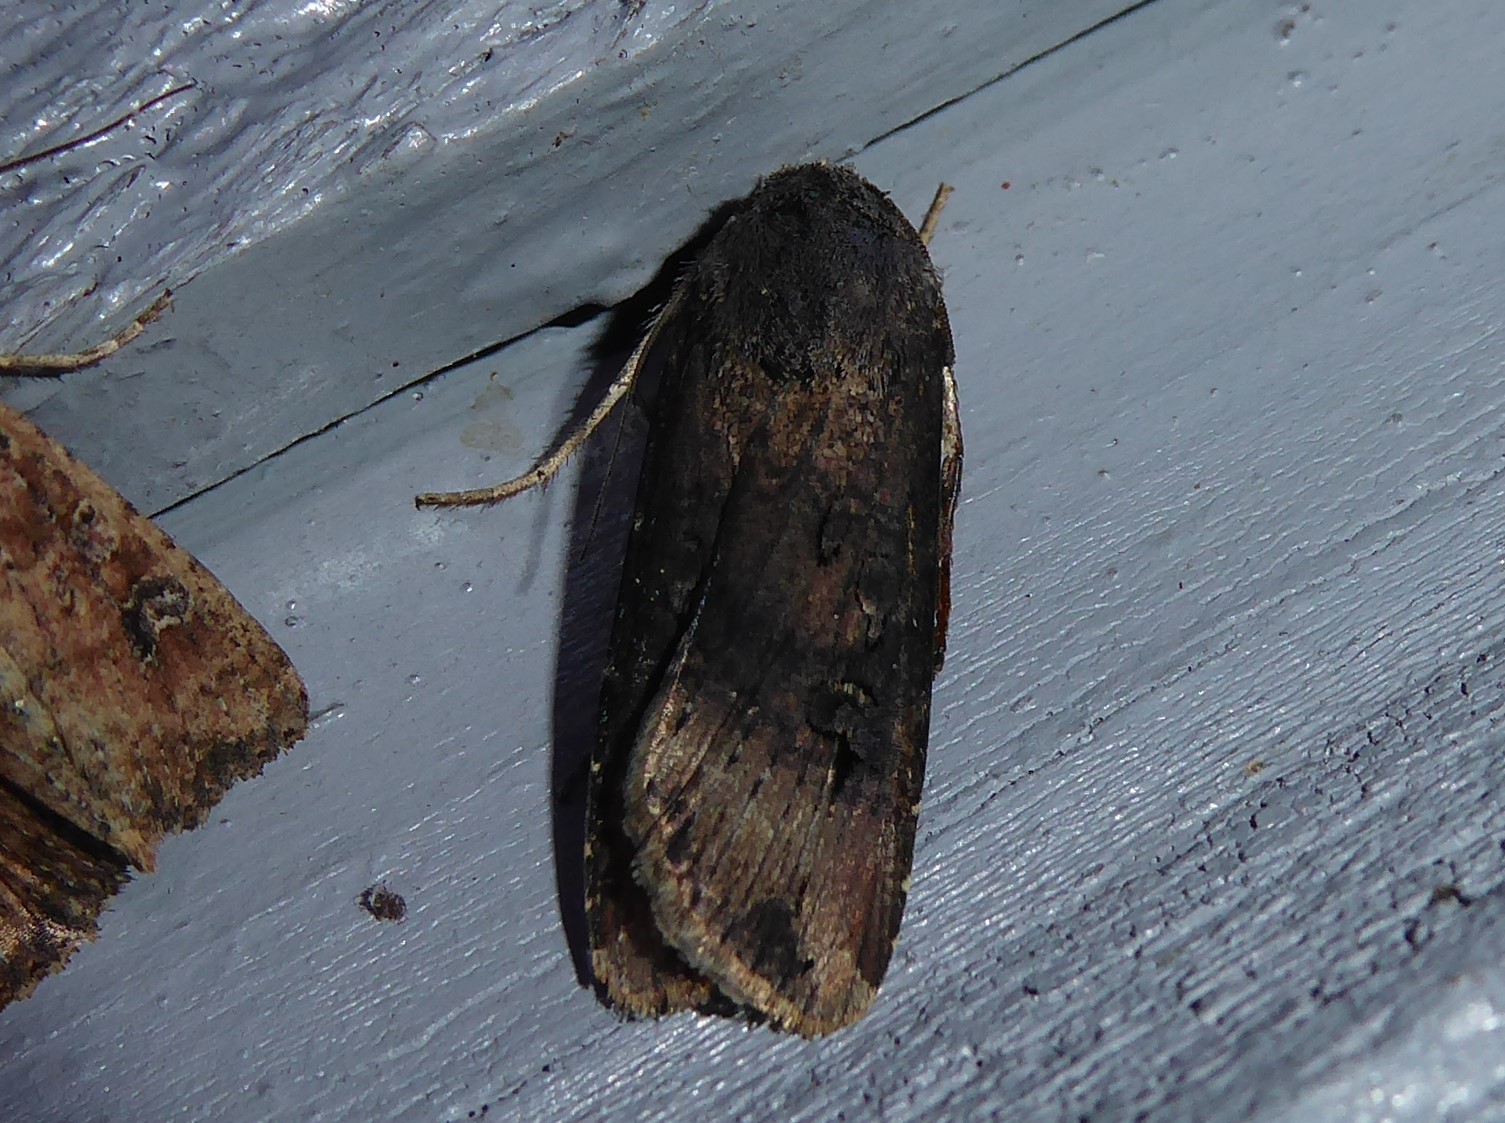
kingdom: Animalia
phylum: Arthropoda
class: Insecta
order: Lepidoptera
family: Noctuidae
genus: Agrotis
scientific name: Agrotis ipsilon
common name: Dark sword-grass
